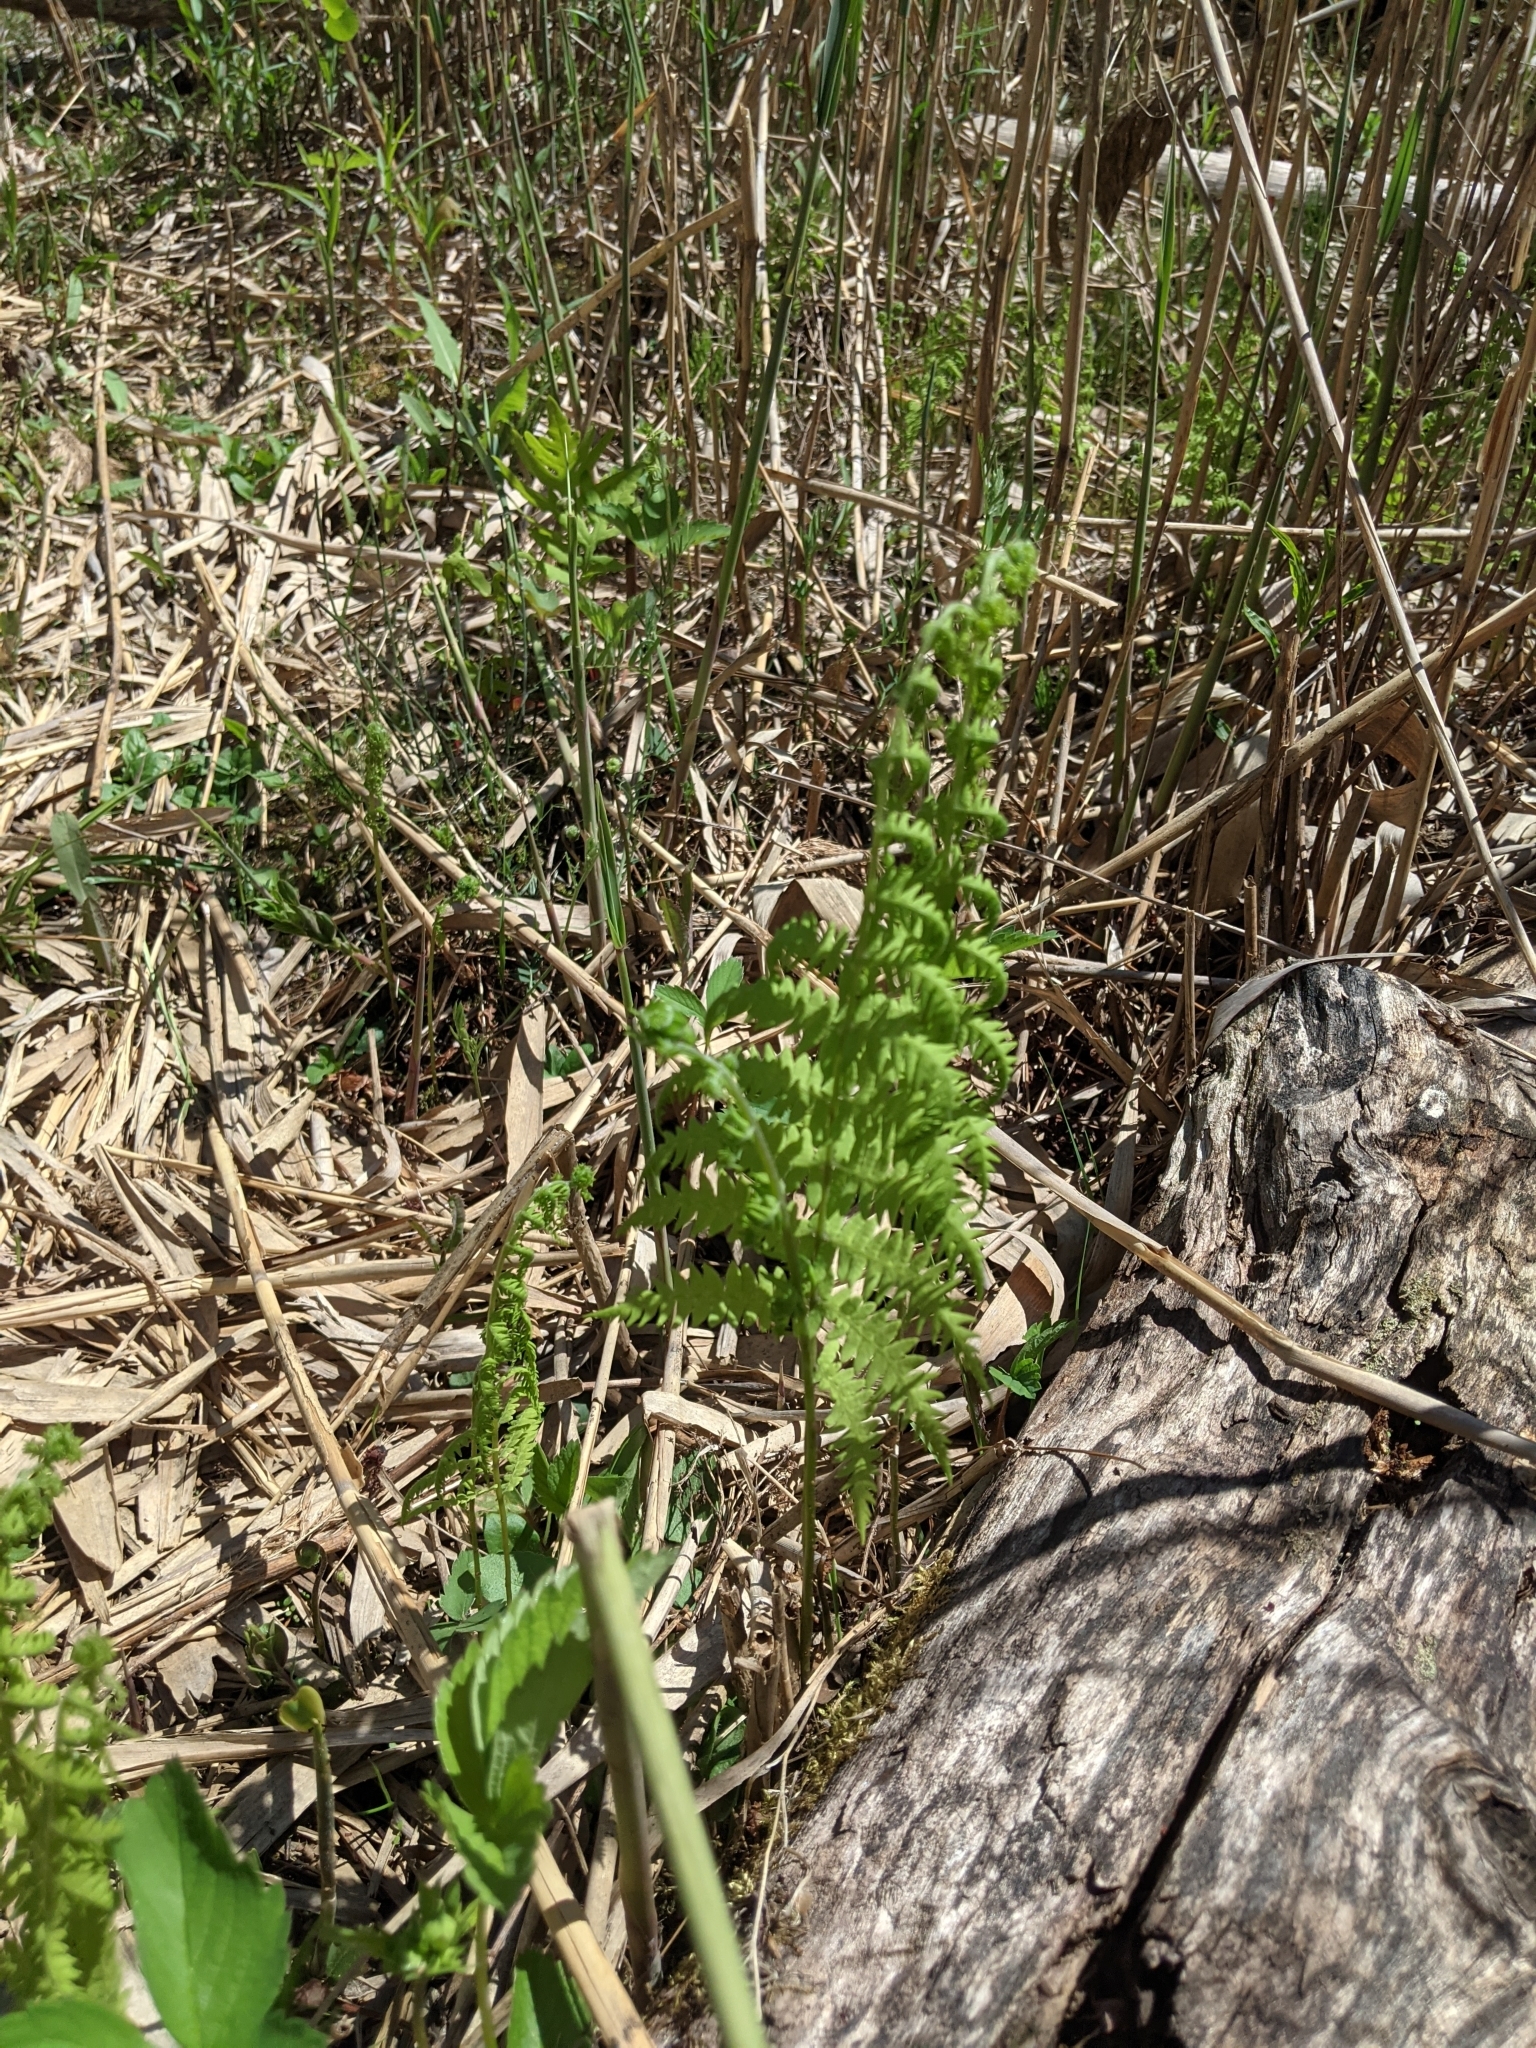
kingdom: Plantae
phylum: Tracheophyta
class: Polypodiopsida
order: Polypodiales
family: Thelypteridaceae
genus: Thelypteris
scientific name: Thelypteris palustris
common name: Marsh fern
